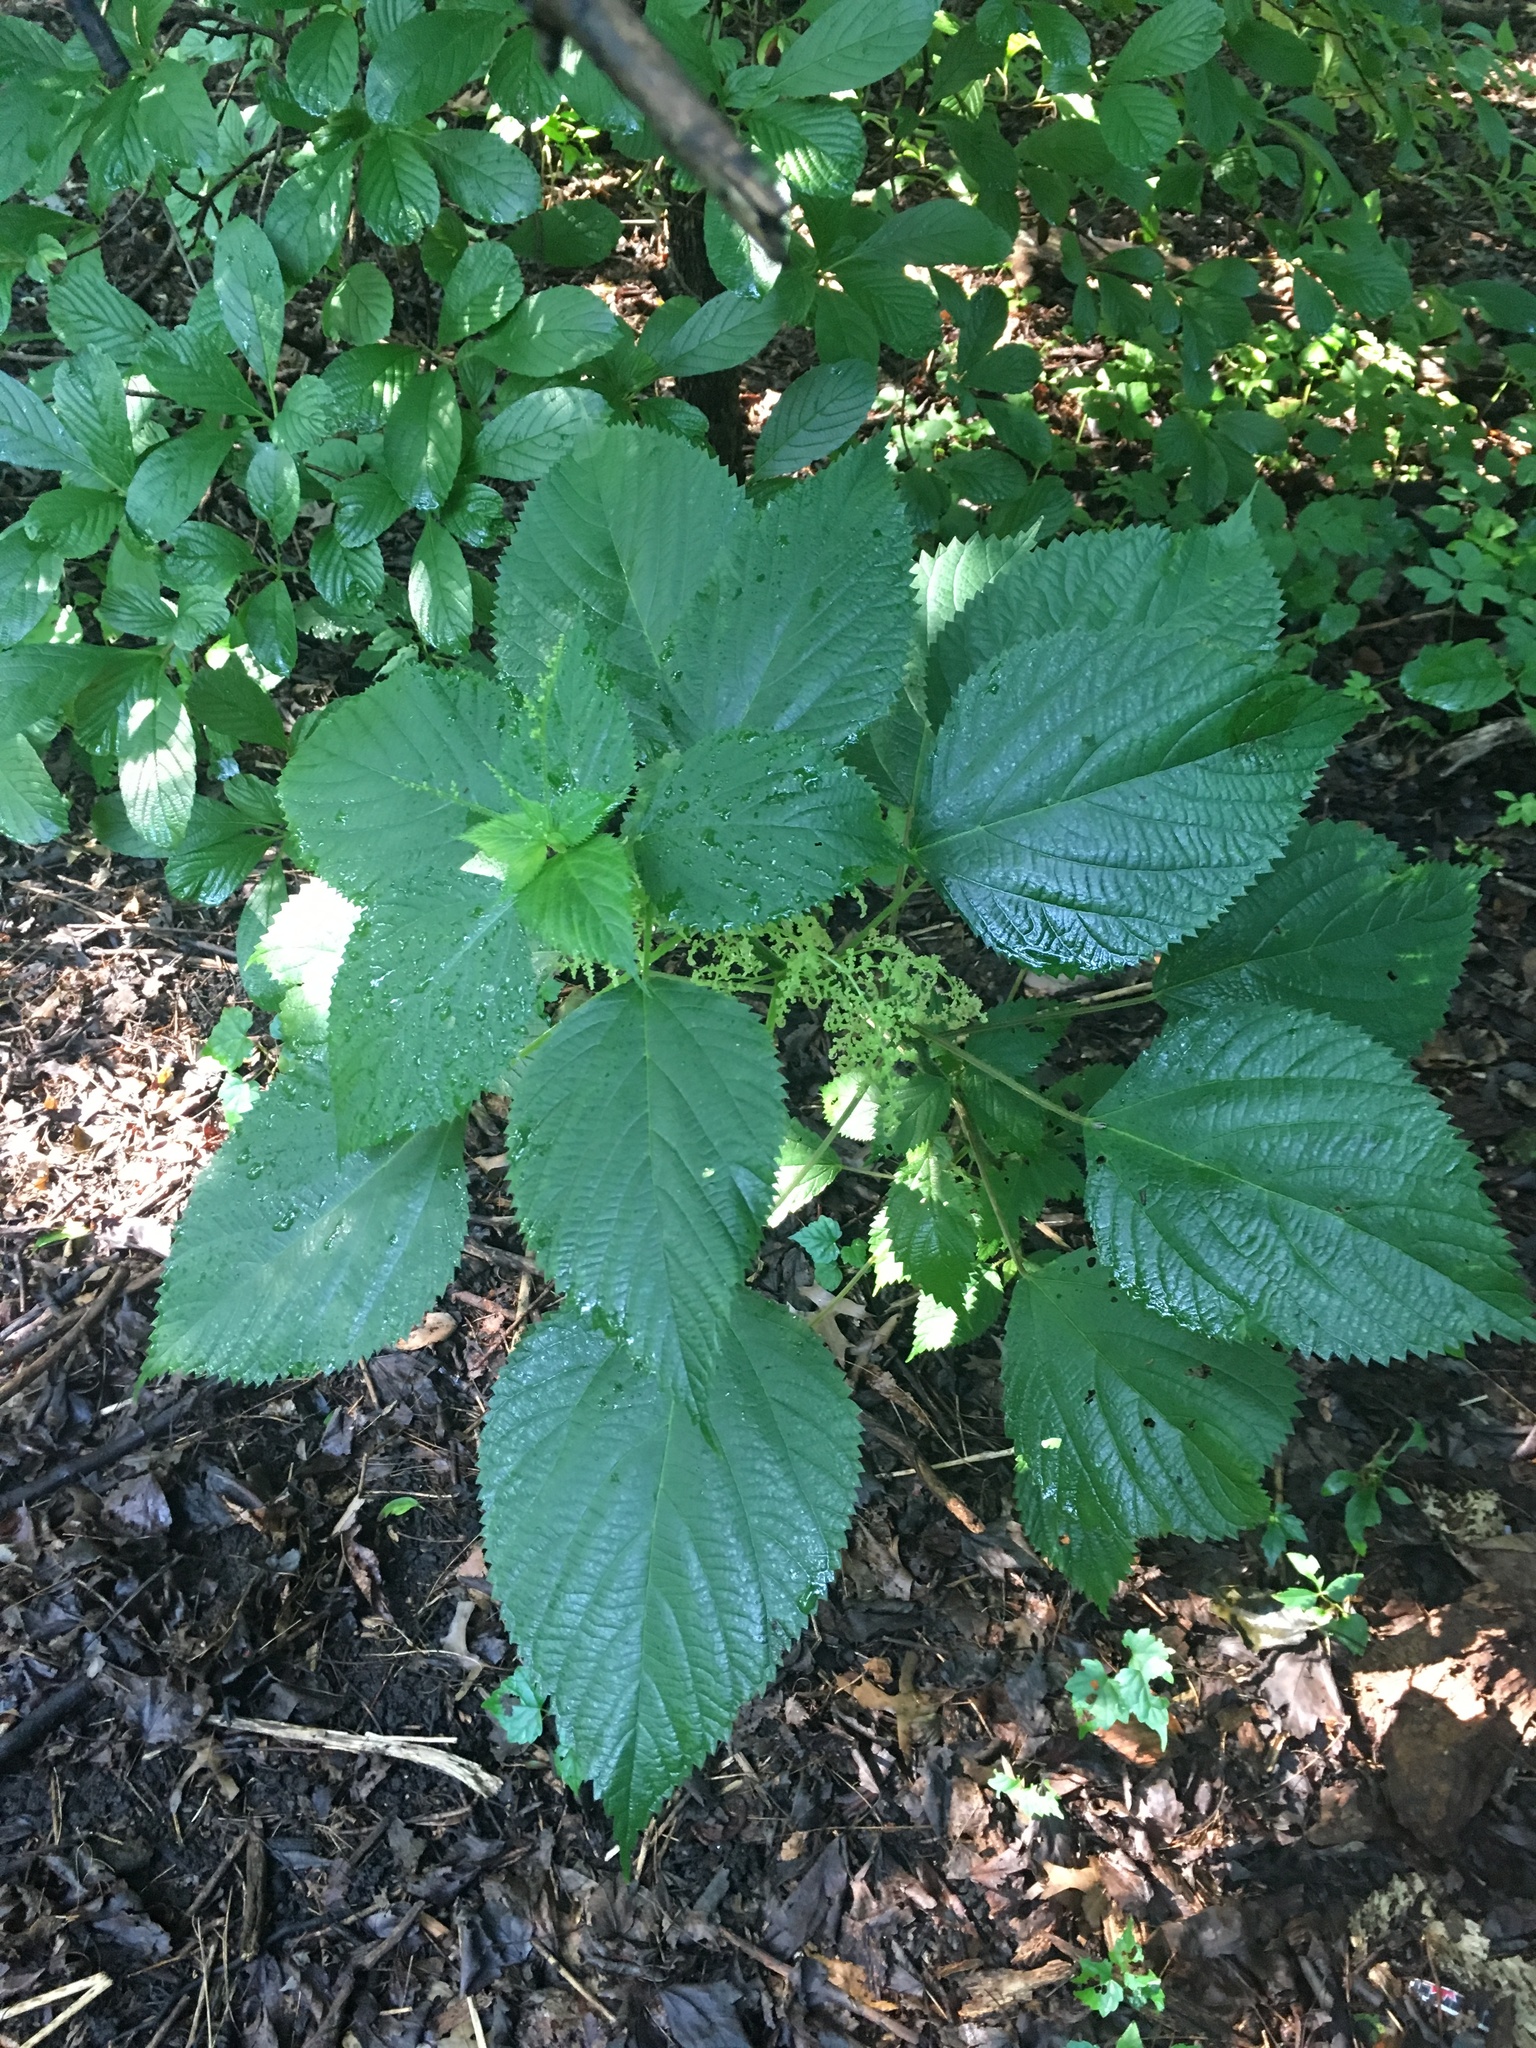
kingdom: Plantae
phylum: Tracheophyta
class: Magnoliopsida
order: Rosales
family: Urticaceae
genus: Laportea
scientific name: Laportea canadensis
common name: Canada nettle
